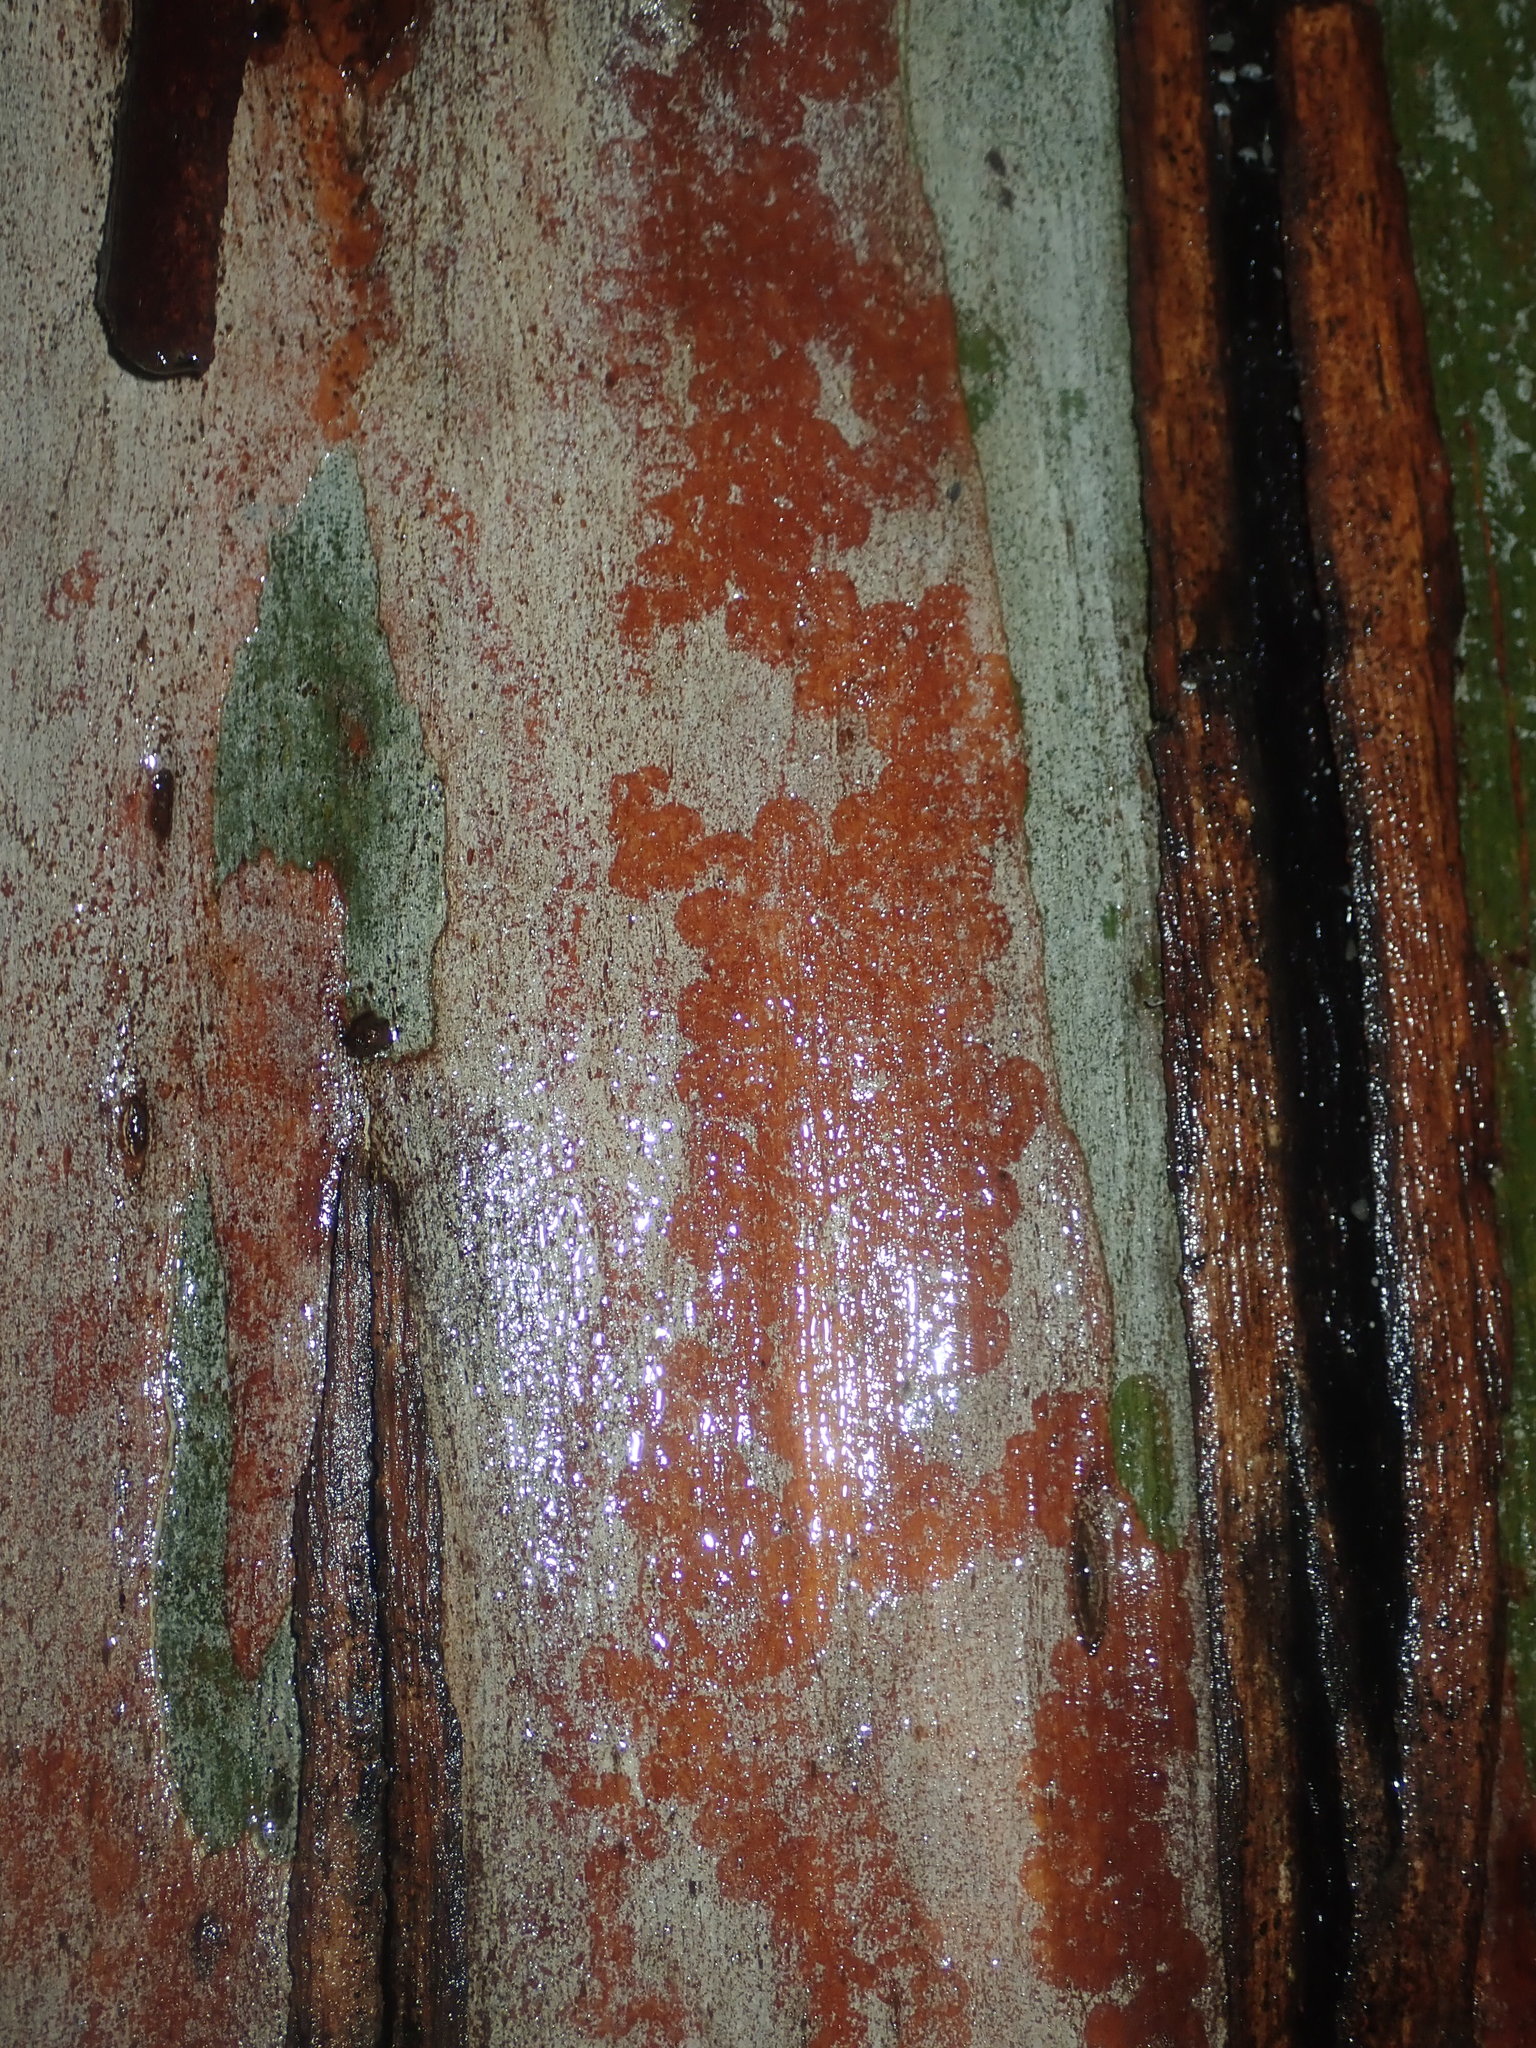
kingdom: Animalia
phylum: Mollusca
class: Gastropoda
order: Stylommatophora
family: Athoracophoridae
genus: Triboniophorus
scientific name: Triboniophorus graeffei
